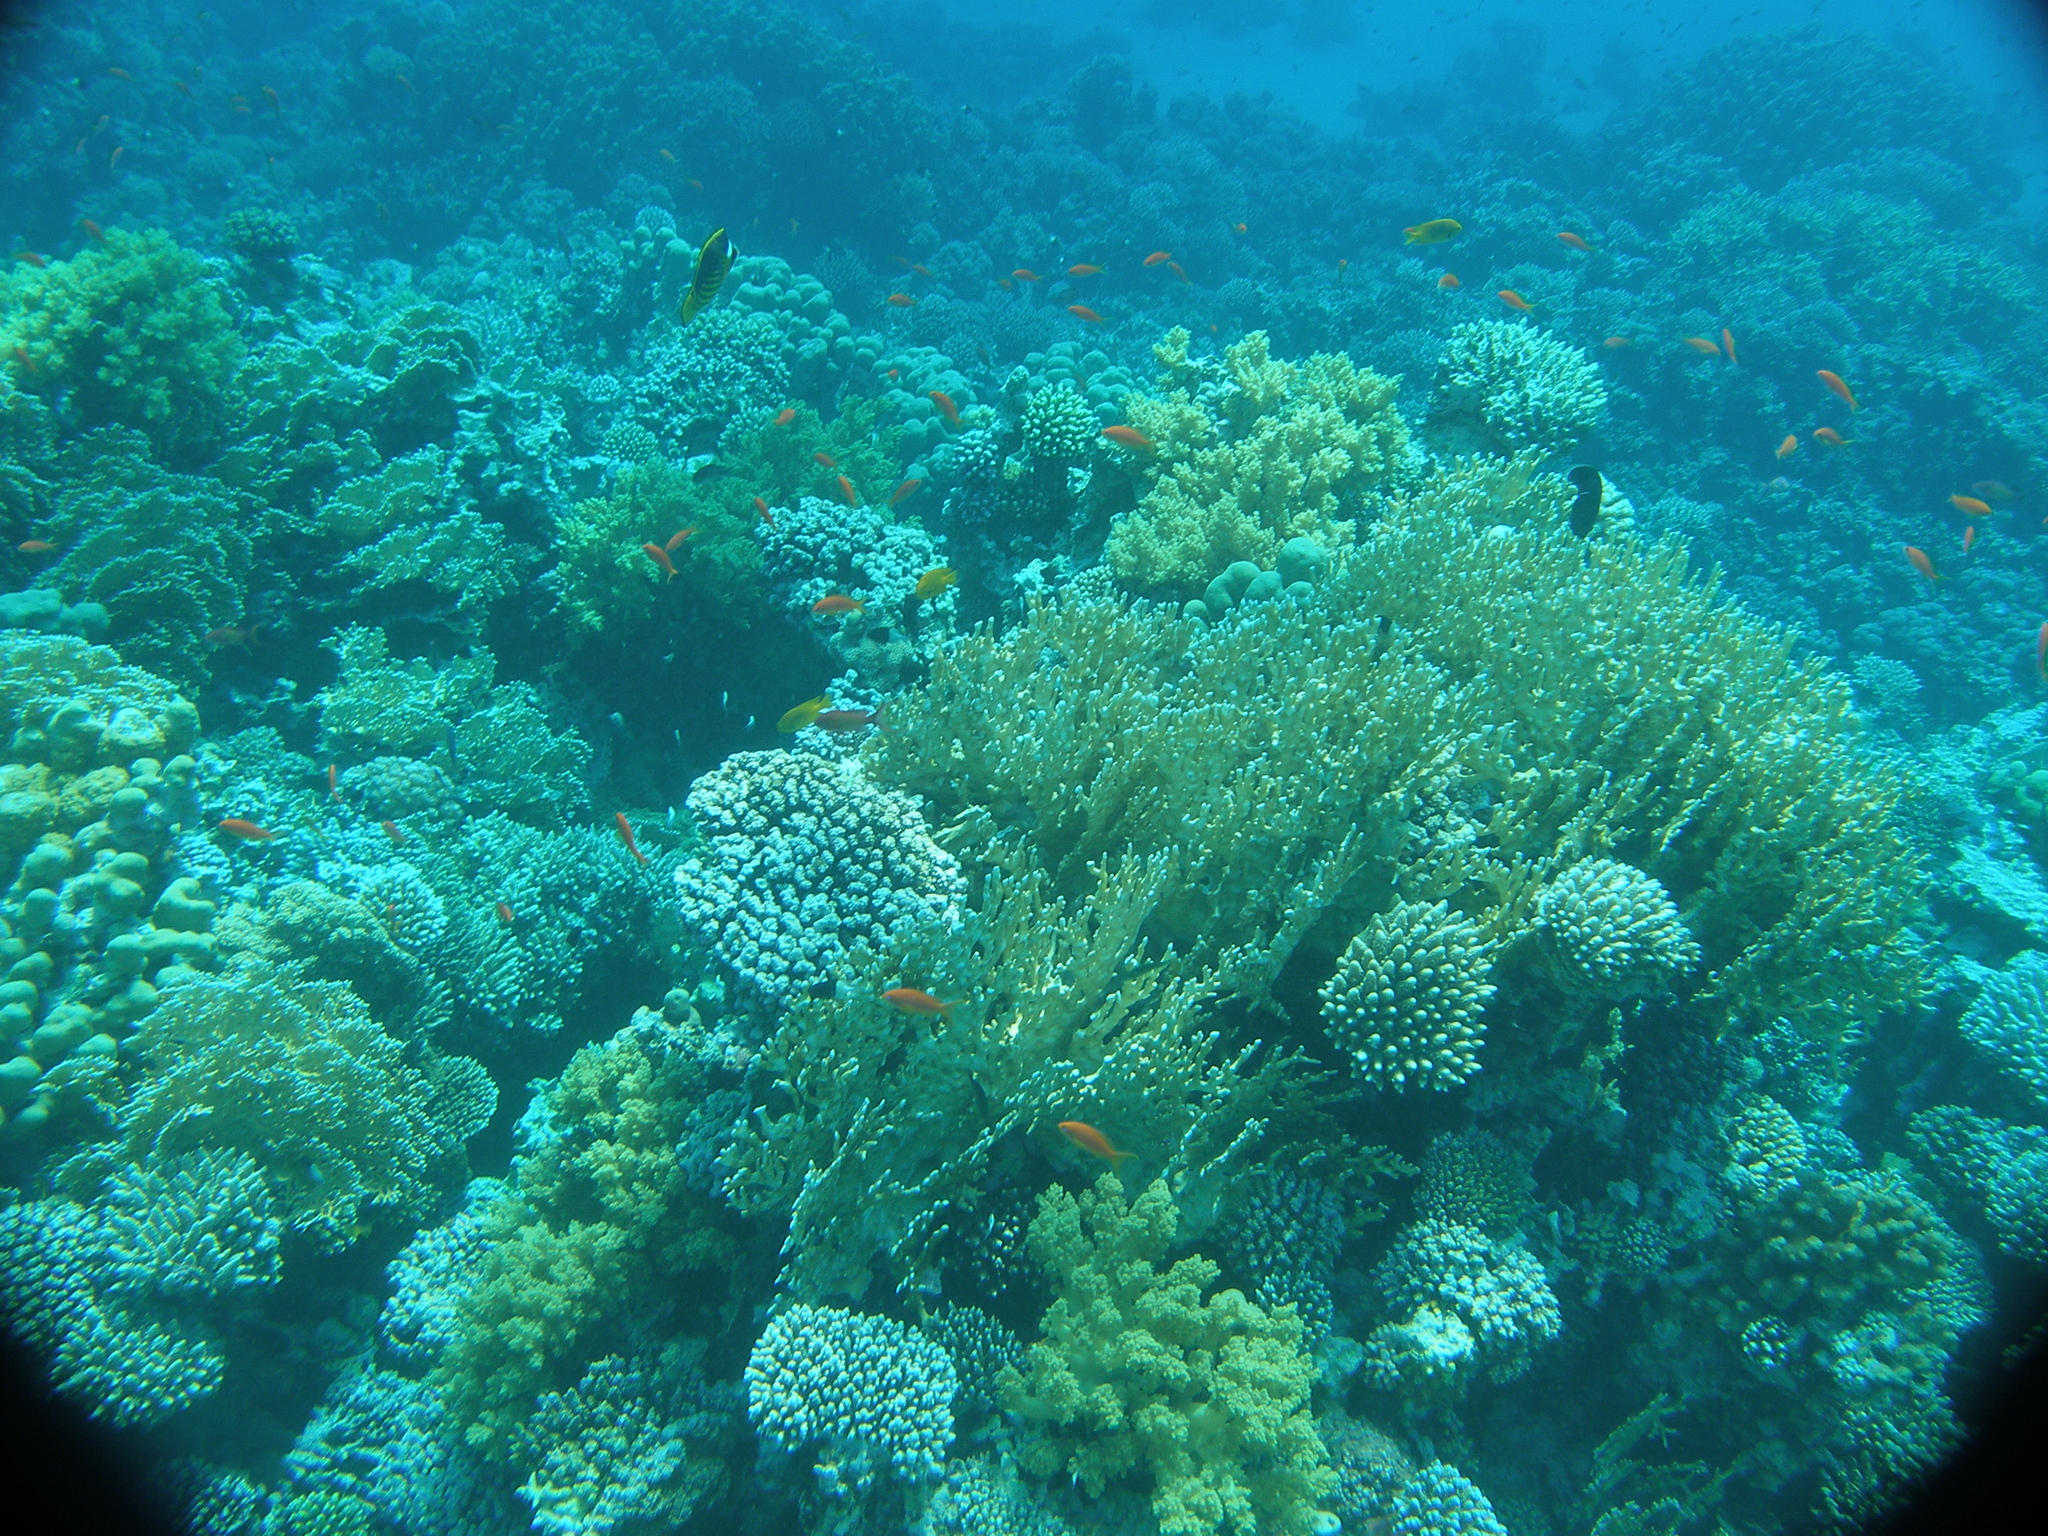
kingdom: Animalia
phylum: Chordata
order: Perciformes
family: Chaetodontidae
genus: Chaetodon
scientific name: Chaetodon fasciatus
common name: Diagonal butterflyfish
